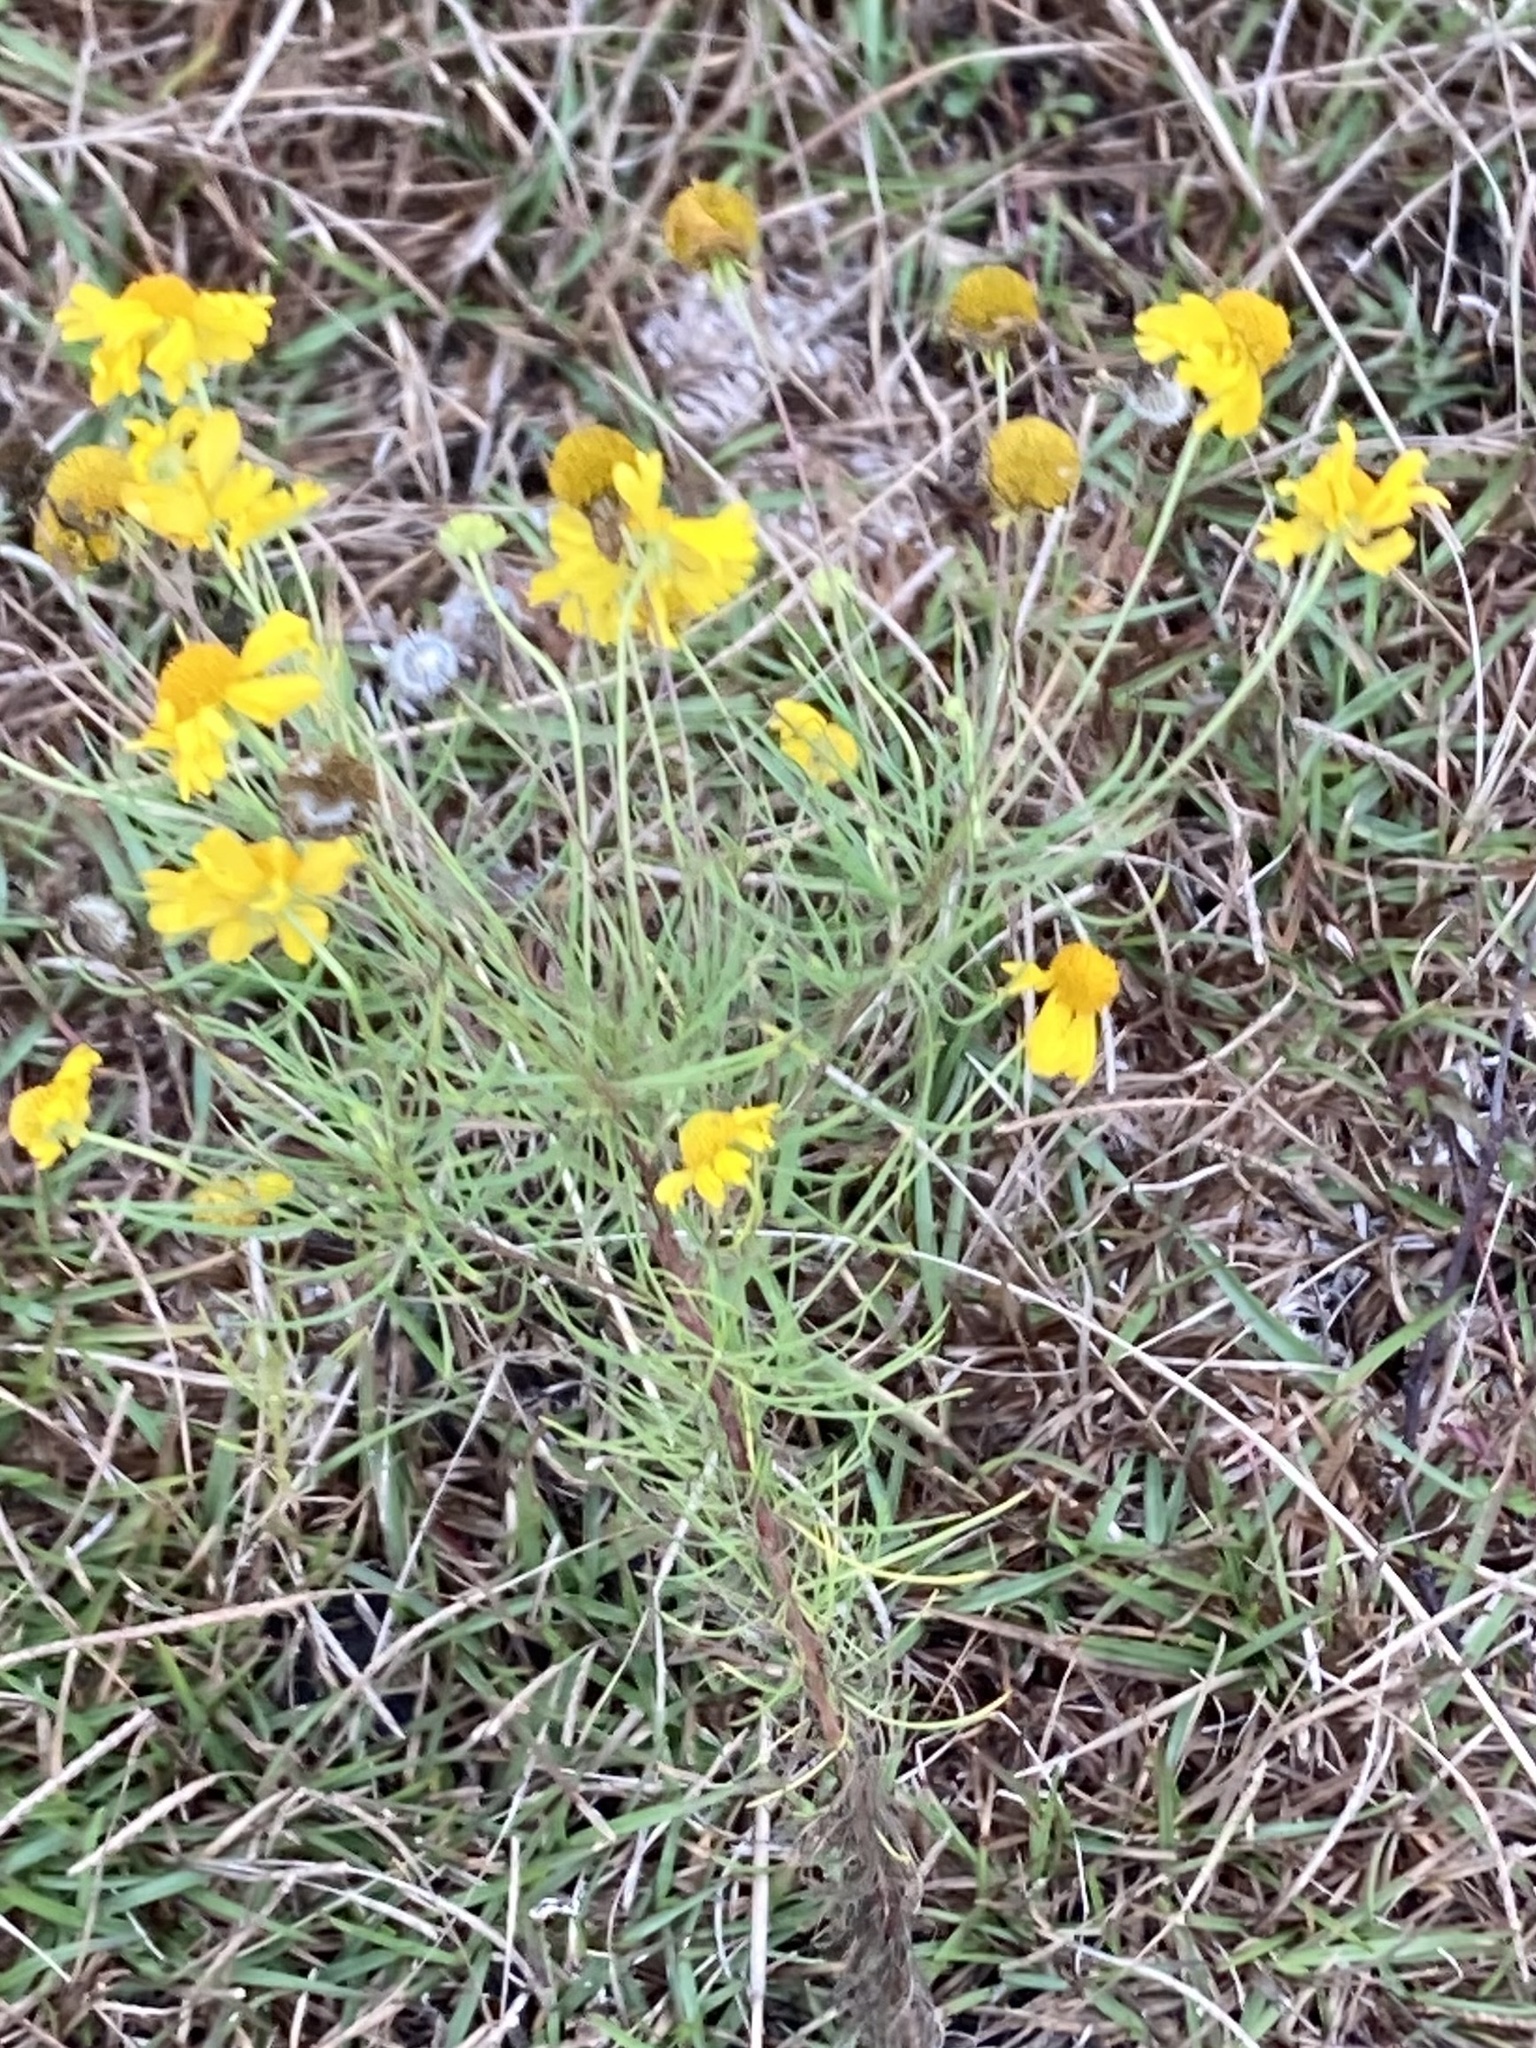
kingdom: Plantae
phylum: Tracheophyta
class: Magnoliopsida
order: Asterales
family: Asteraceae
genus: Helenium
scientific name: Helenium amarum
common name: Bitter sneezeweed
